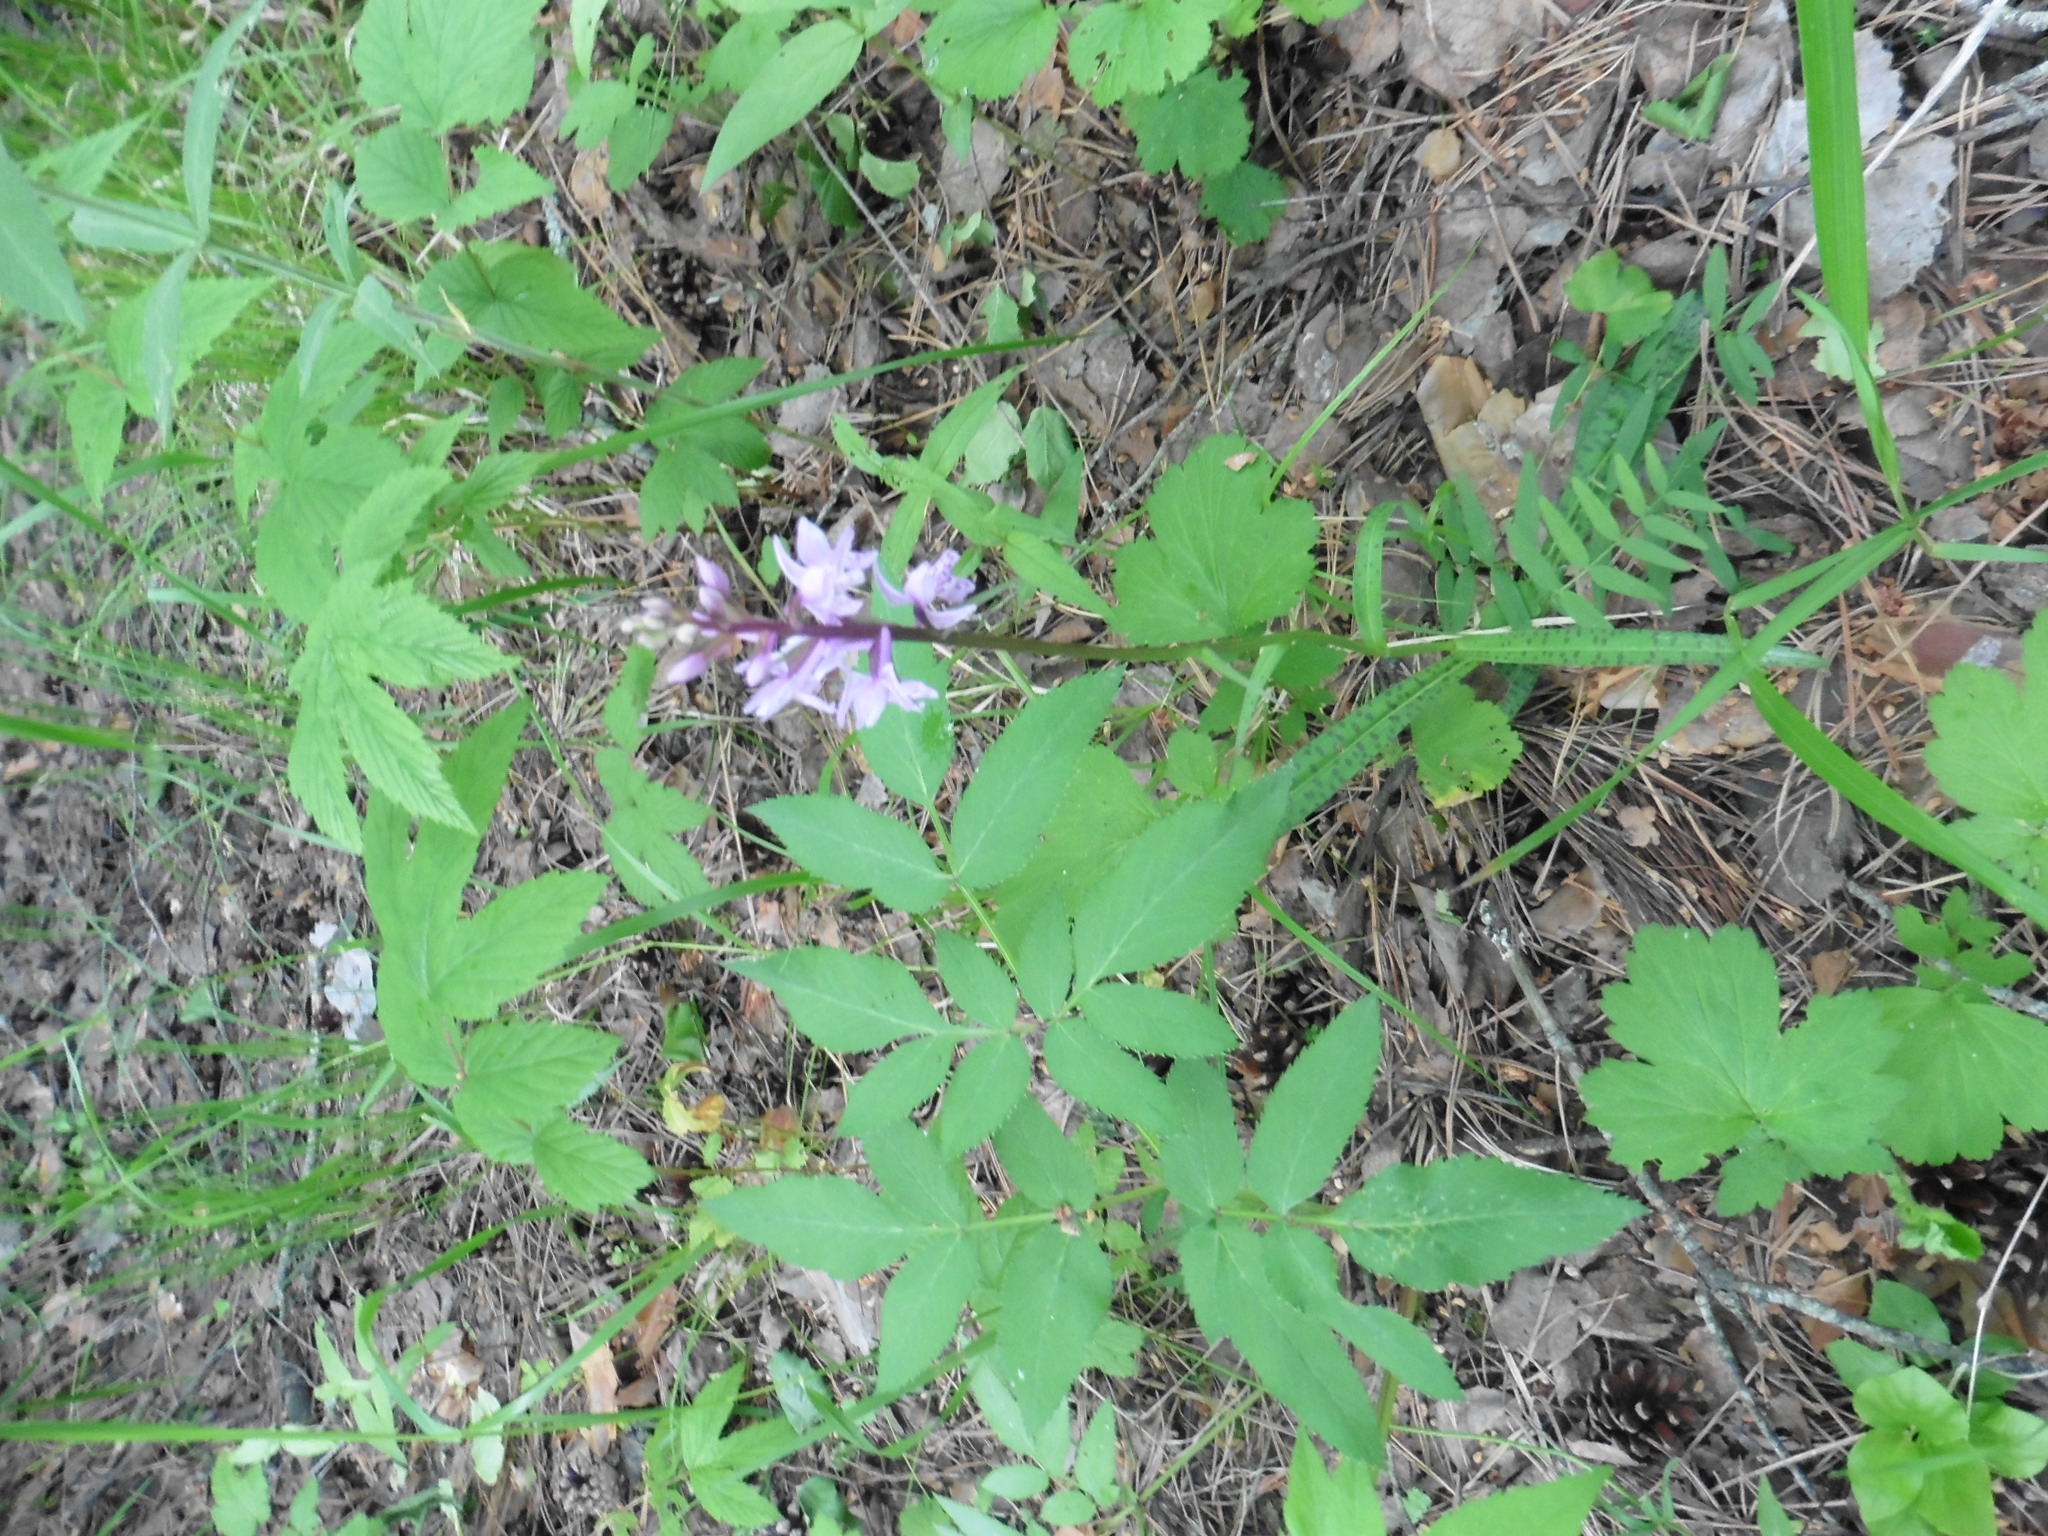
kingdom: Plantae
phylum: Tracheophyta
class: Liliopsida
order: Asparagales
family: Orchidaceae
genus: Dactylorhiza
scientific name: Dactylorhiza maculata
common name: Heath spotted-orchid
